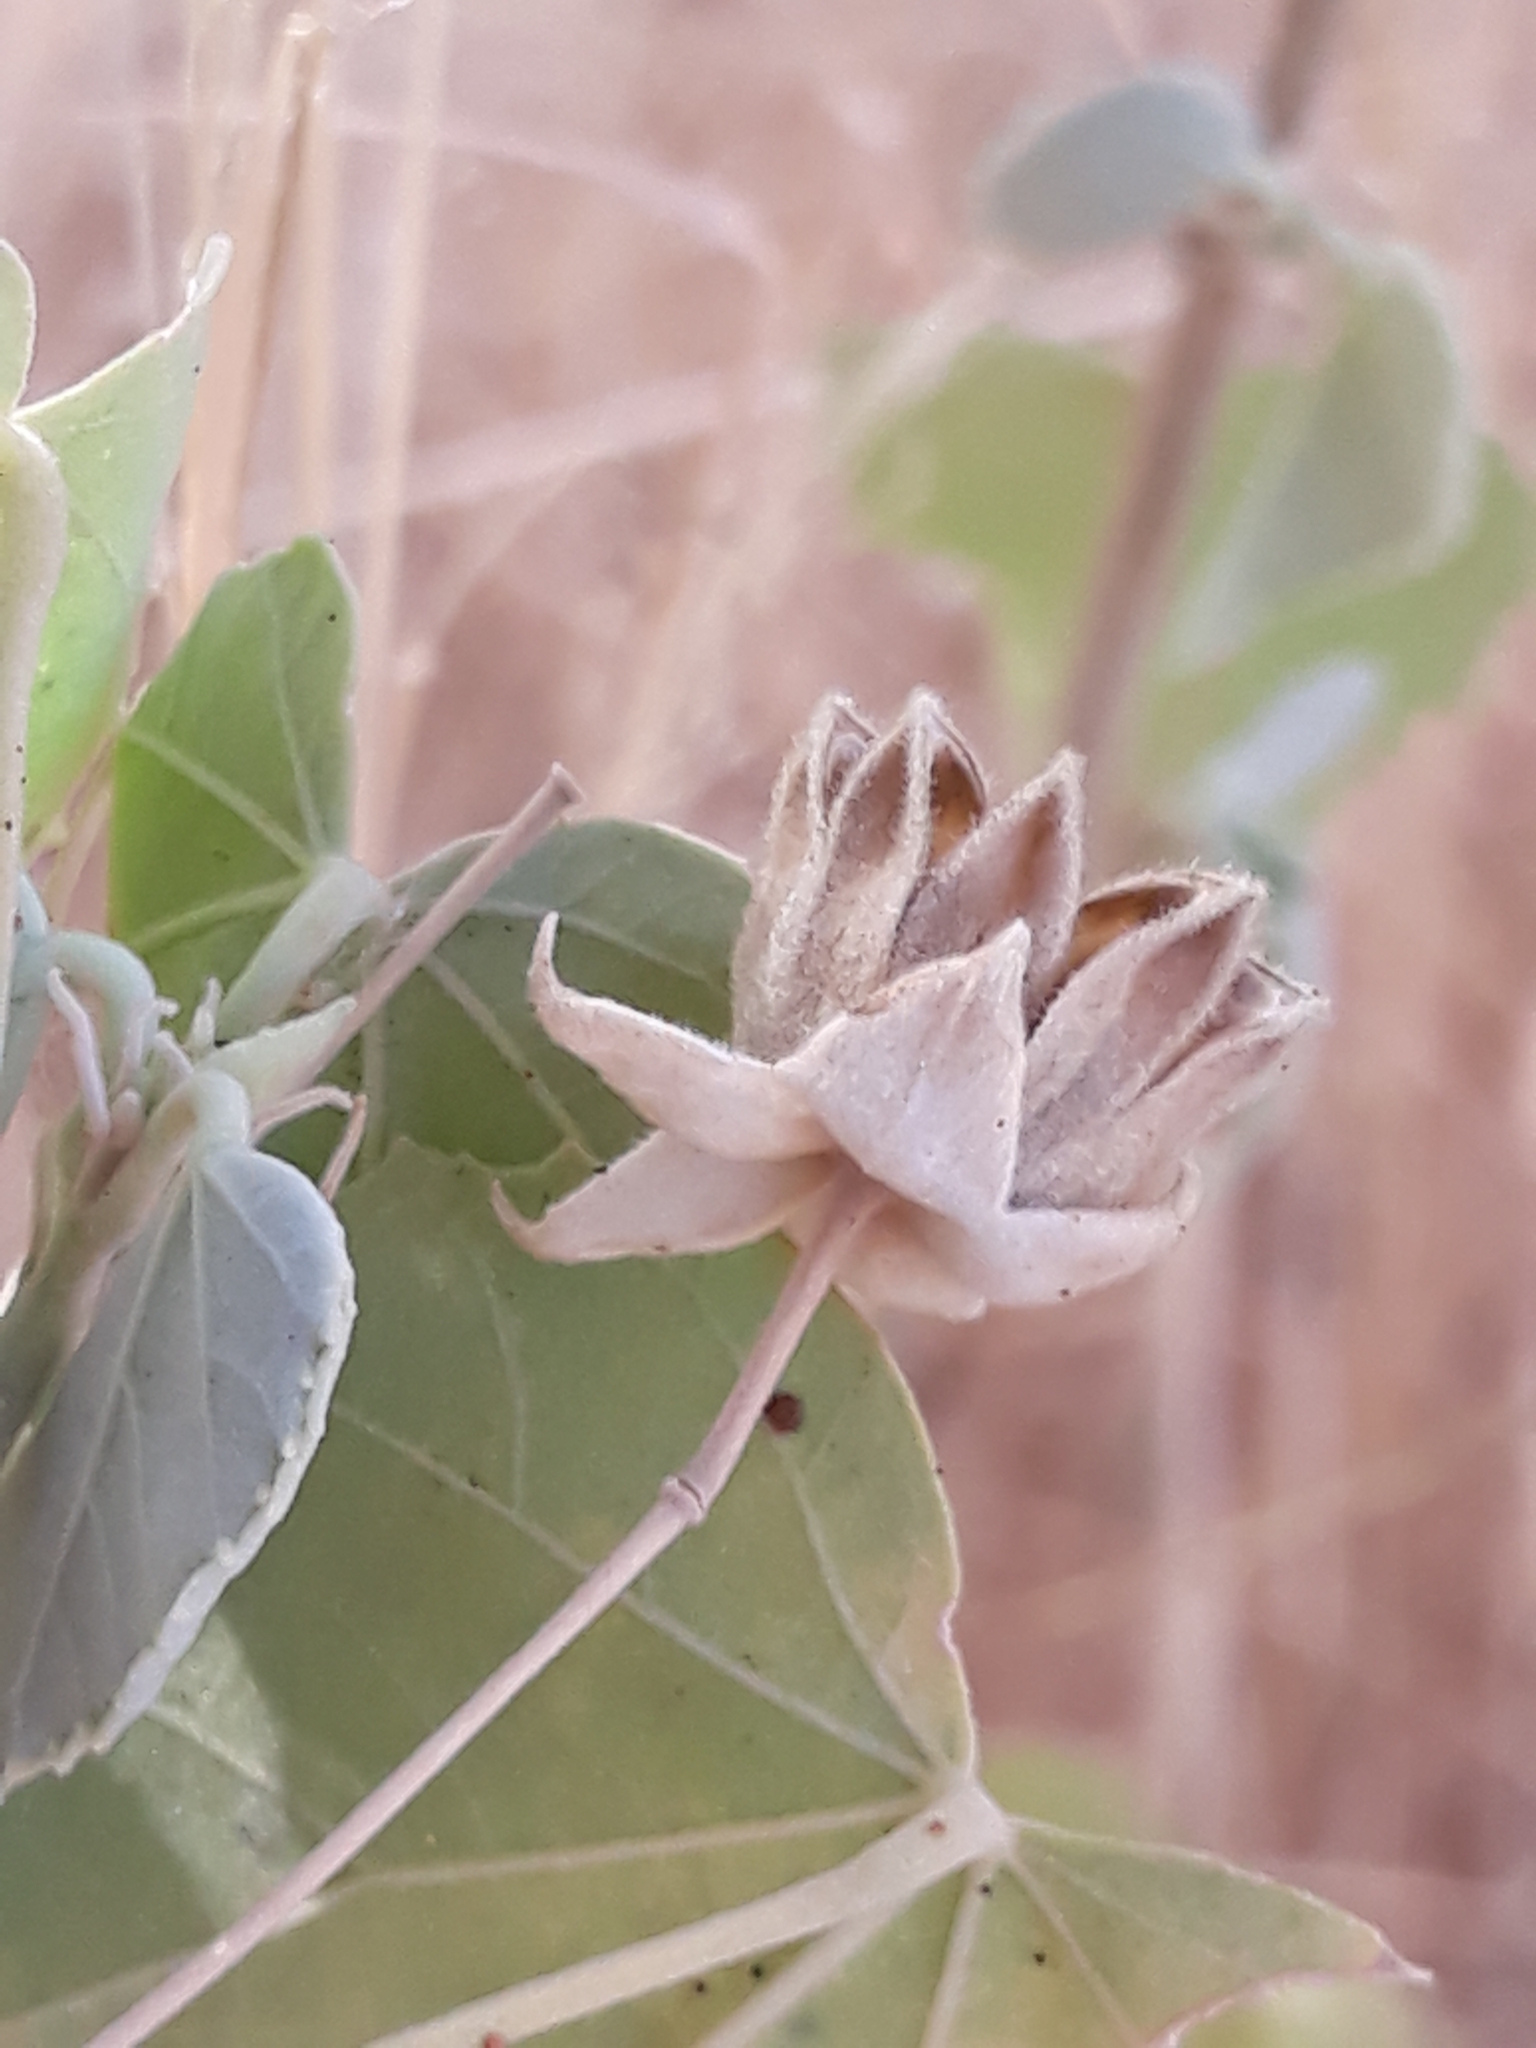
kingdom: Plantae
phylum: Tracheophyta
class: Magnoliopsida
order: Malvales
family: Malvaceae
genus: Abutilon
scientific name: Abutilon fruticosum
